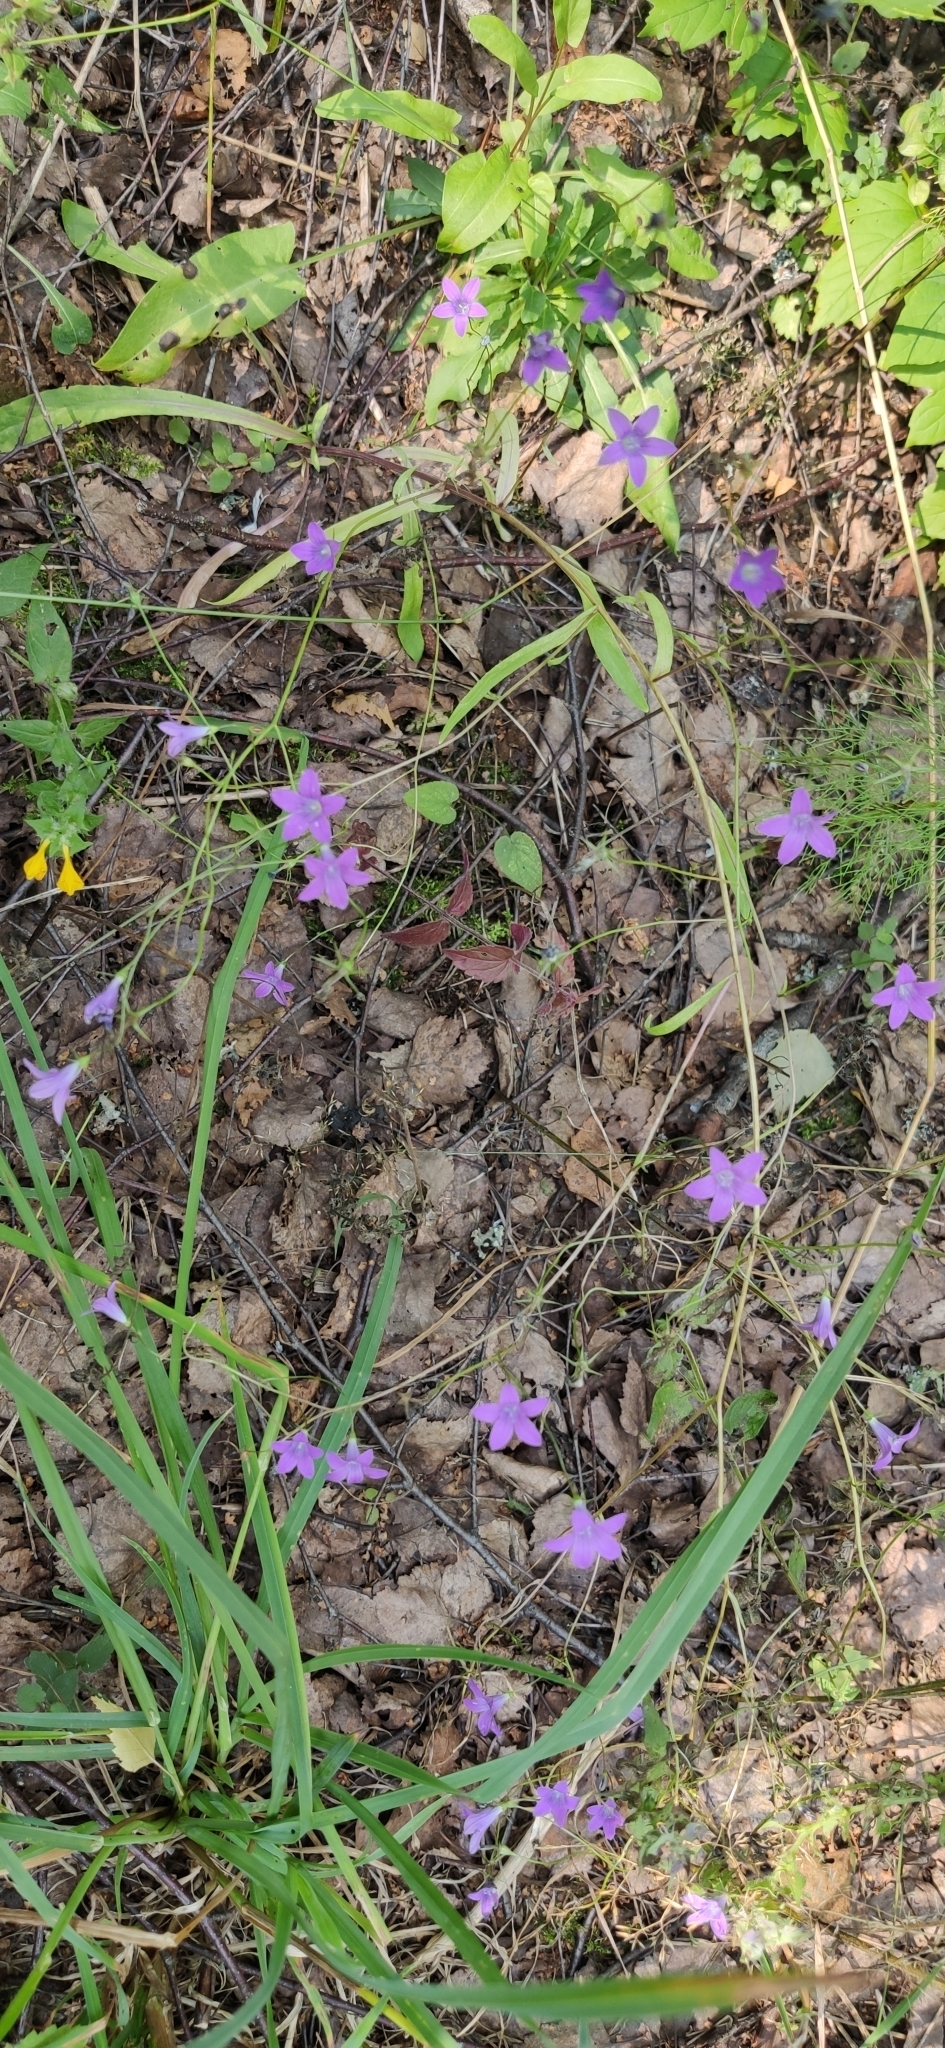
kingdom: Plantae
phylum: Tracheophyta
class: Magnoliopsida
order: Asterales
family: Campanulaceae
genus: Campanula
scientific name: Campanula patula
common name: Spreading bellflower
